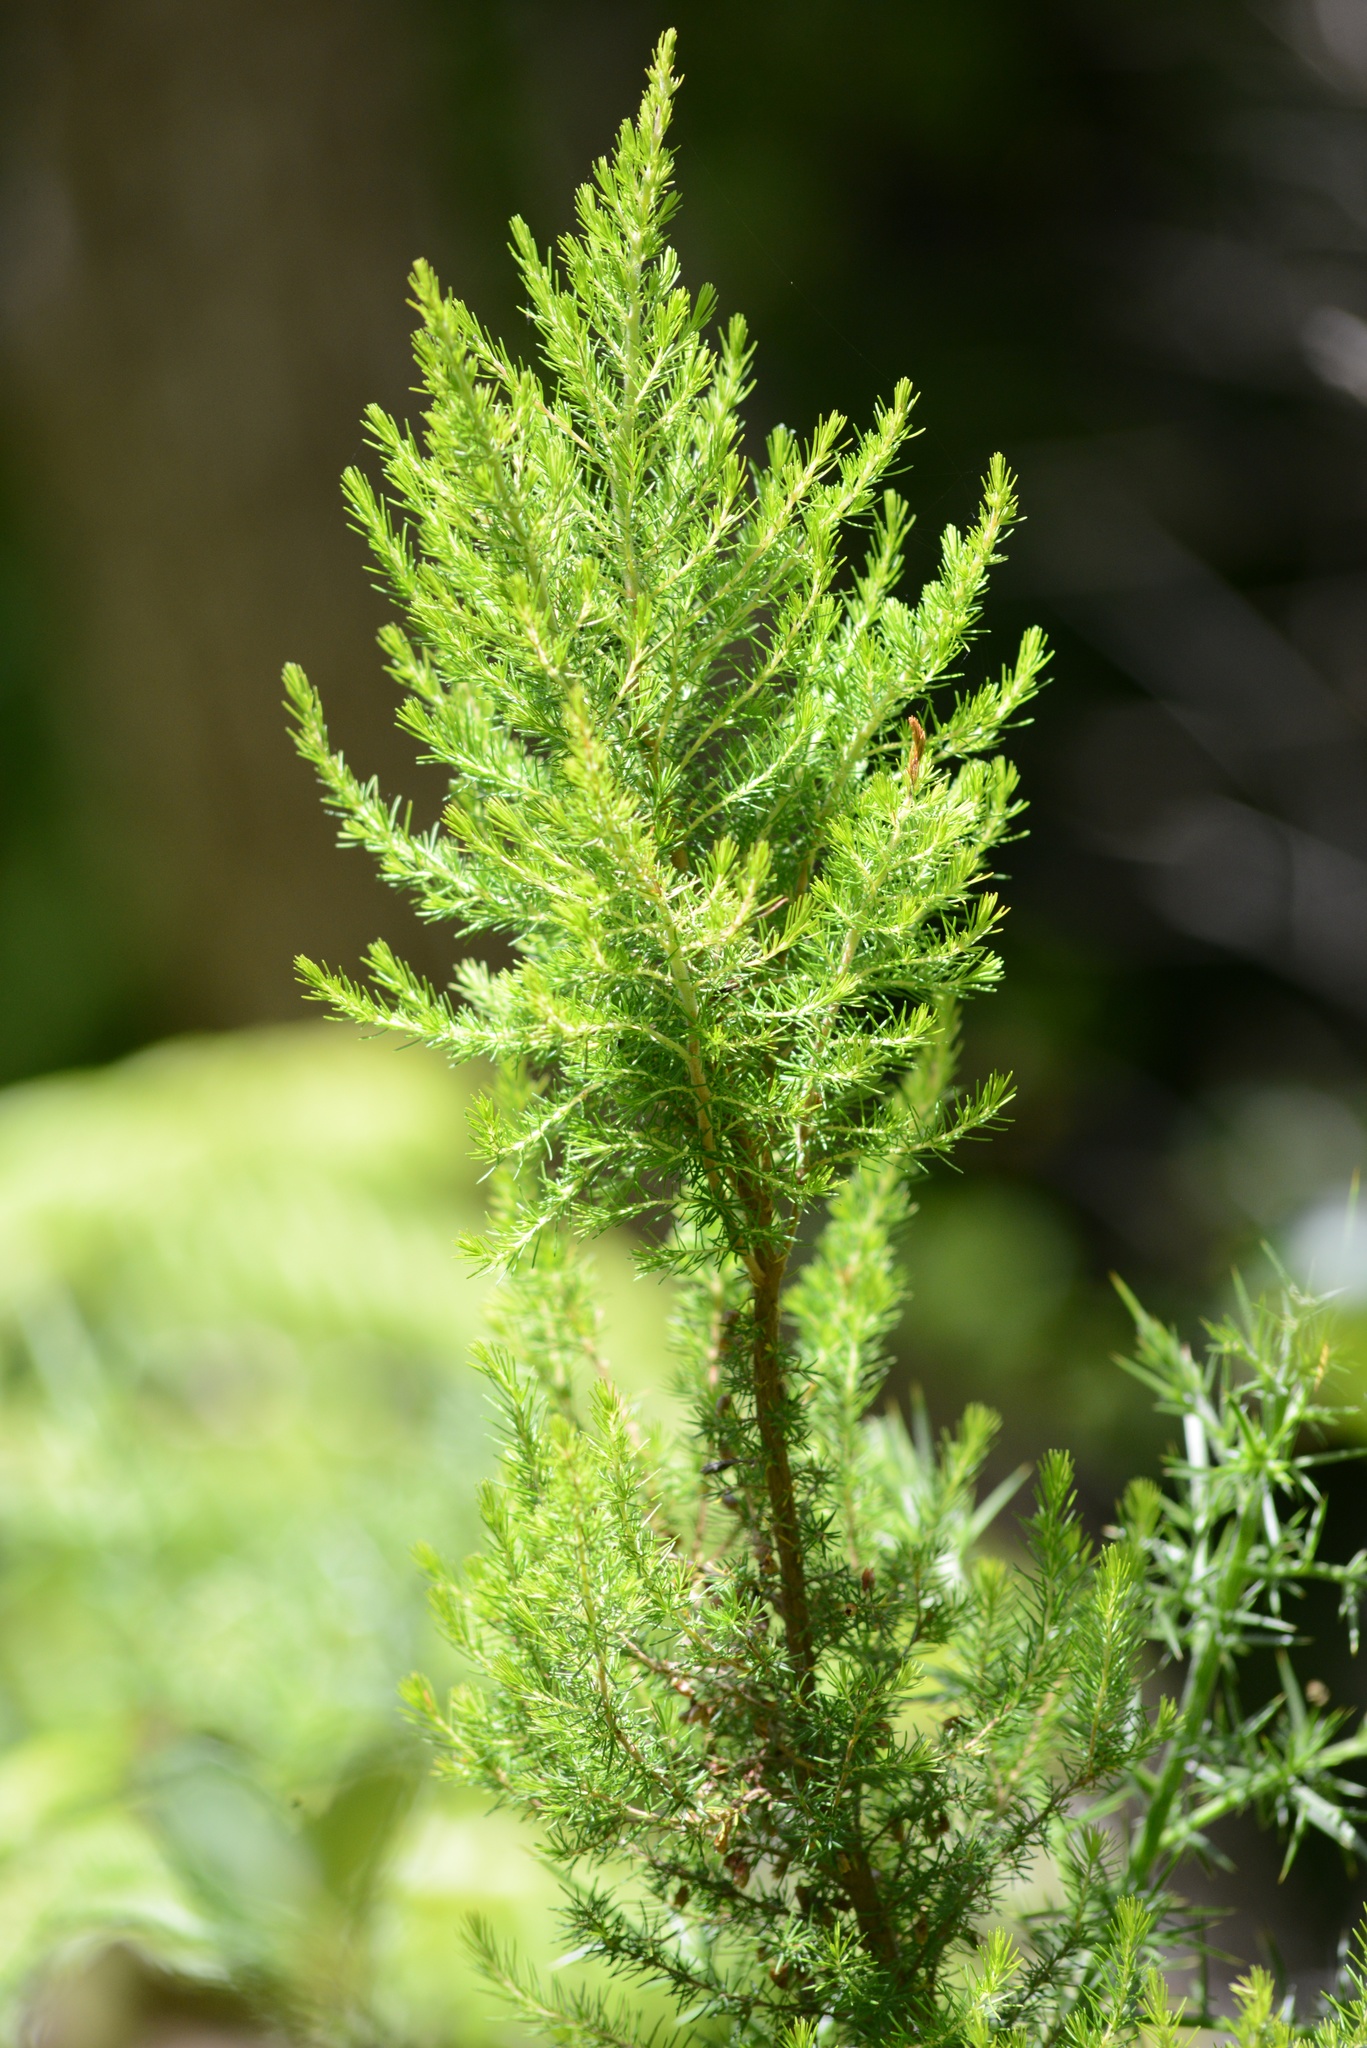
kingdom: Plantae
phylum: Tracheophyta
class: Magnoliopsida
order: Ericales
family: Ericaceae
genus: Erica
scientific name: Erica lusitanica
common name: Spanish heath
